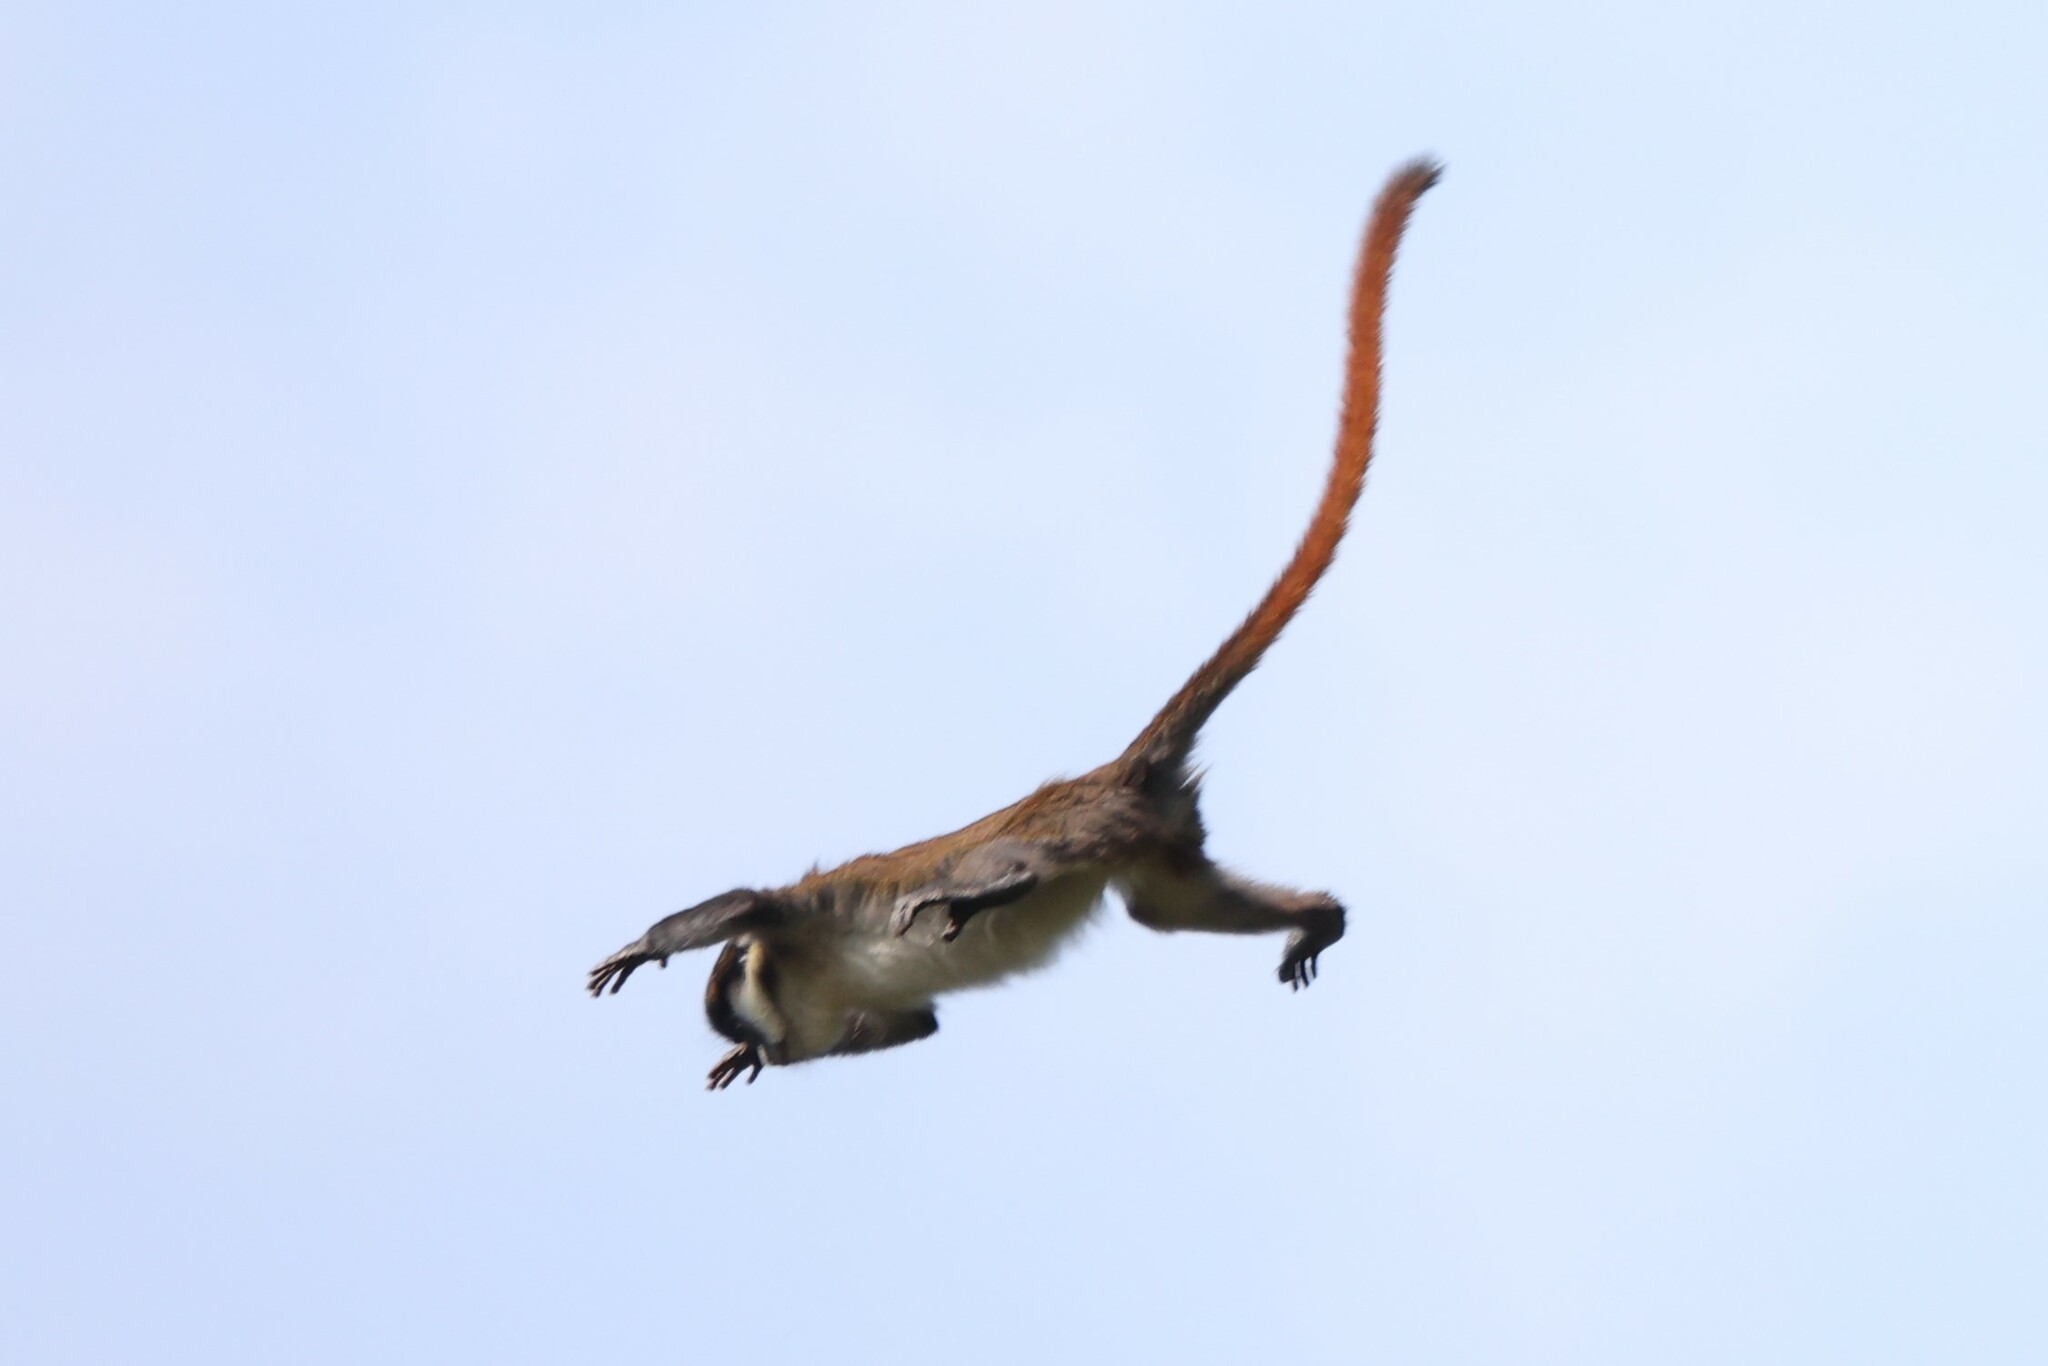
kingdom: Animalia
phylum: Chordata
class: Mammalia
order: Primates
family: Cercopithecidae
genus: Cercopithecus
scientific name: Cercopithecus ascanius
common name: Red-tailed monkey
